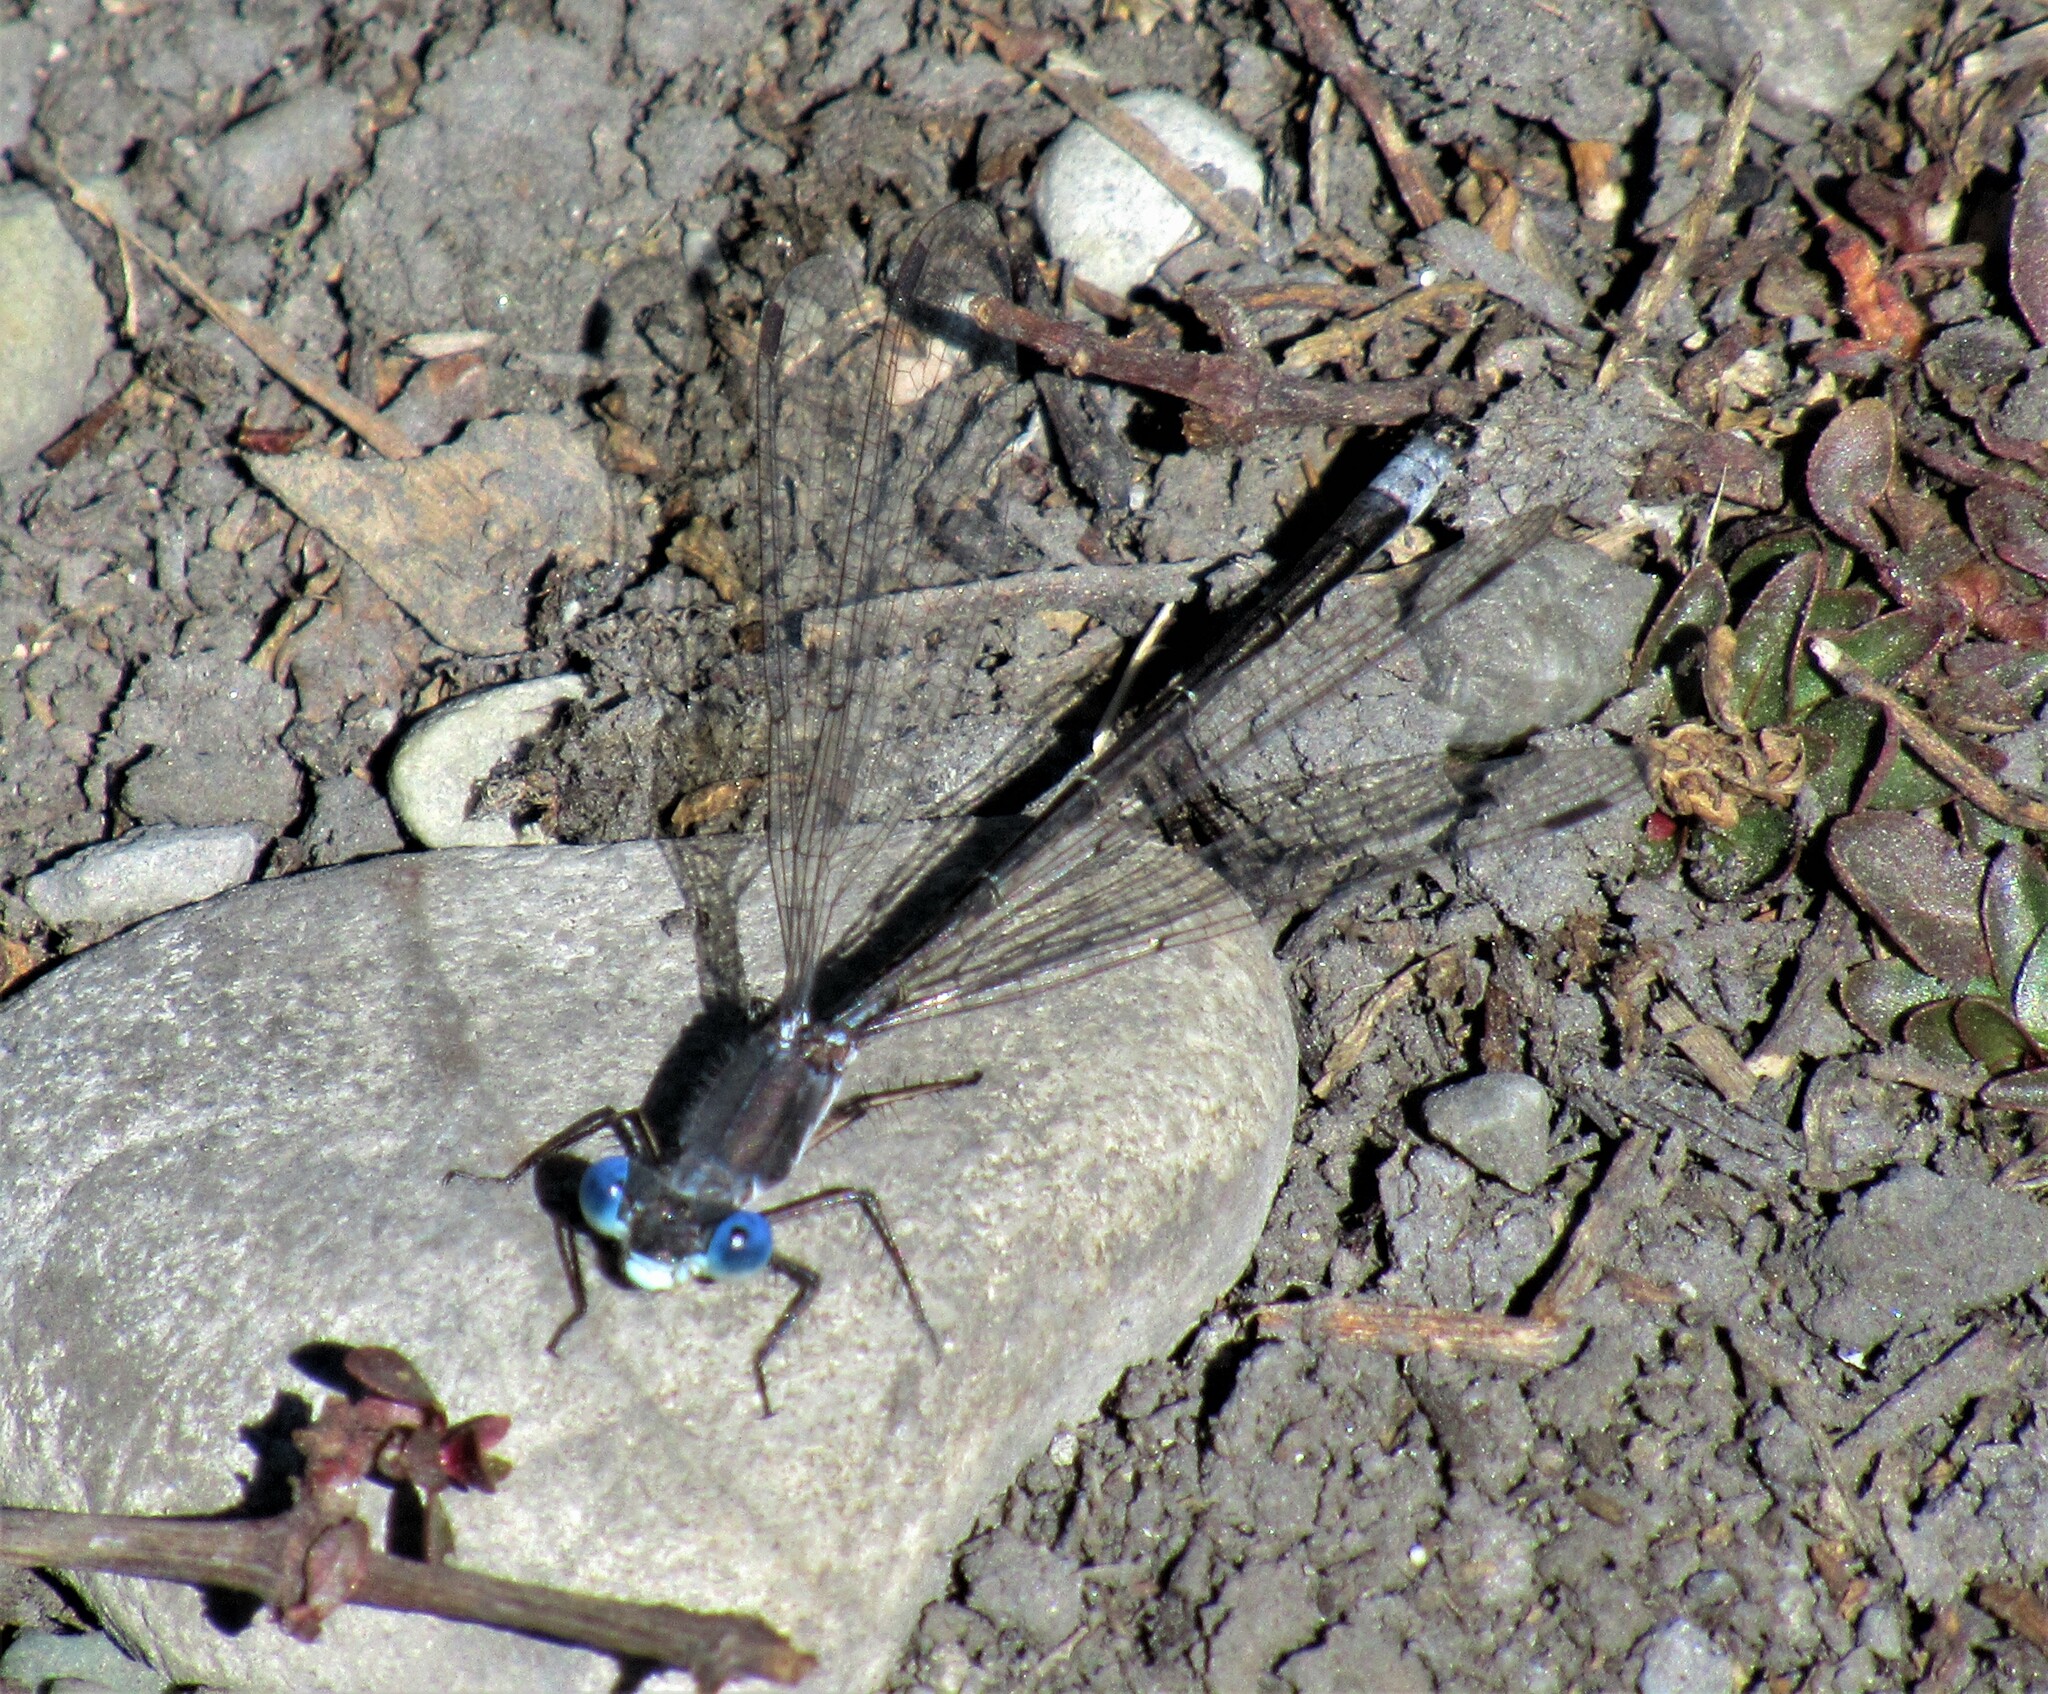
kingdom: Animalia
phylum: Arthropoda
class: Insecta
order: Odonata
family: Lestidae
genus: Lestes
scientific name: Lestes congener
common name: Spotted spreadwing
